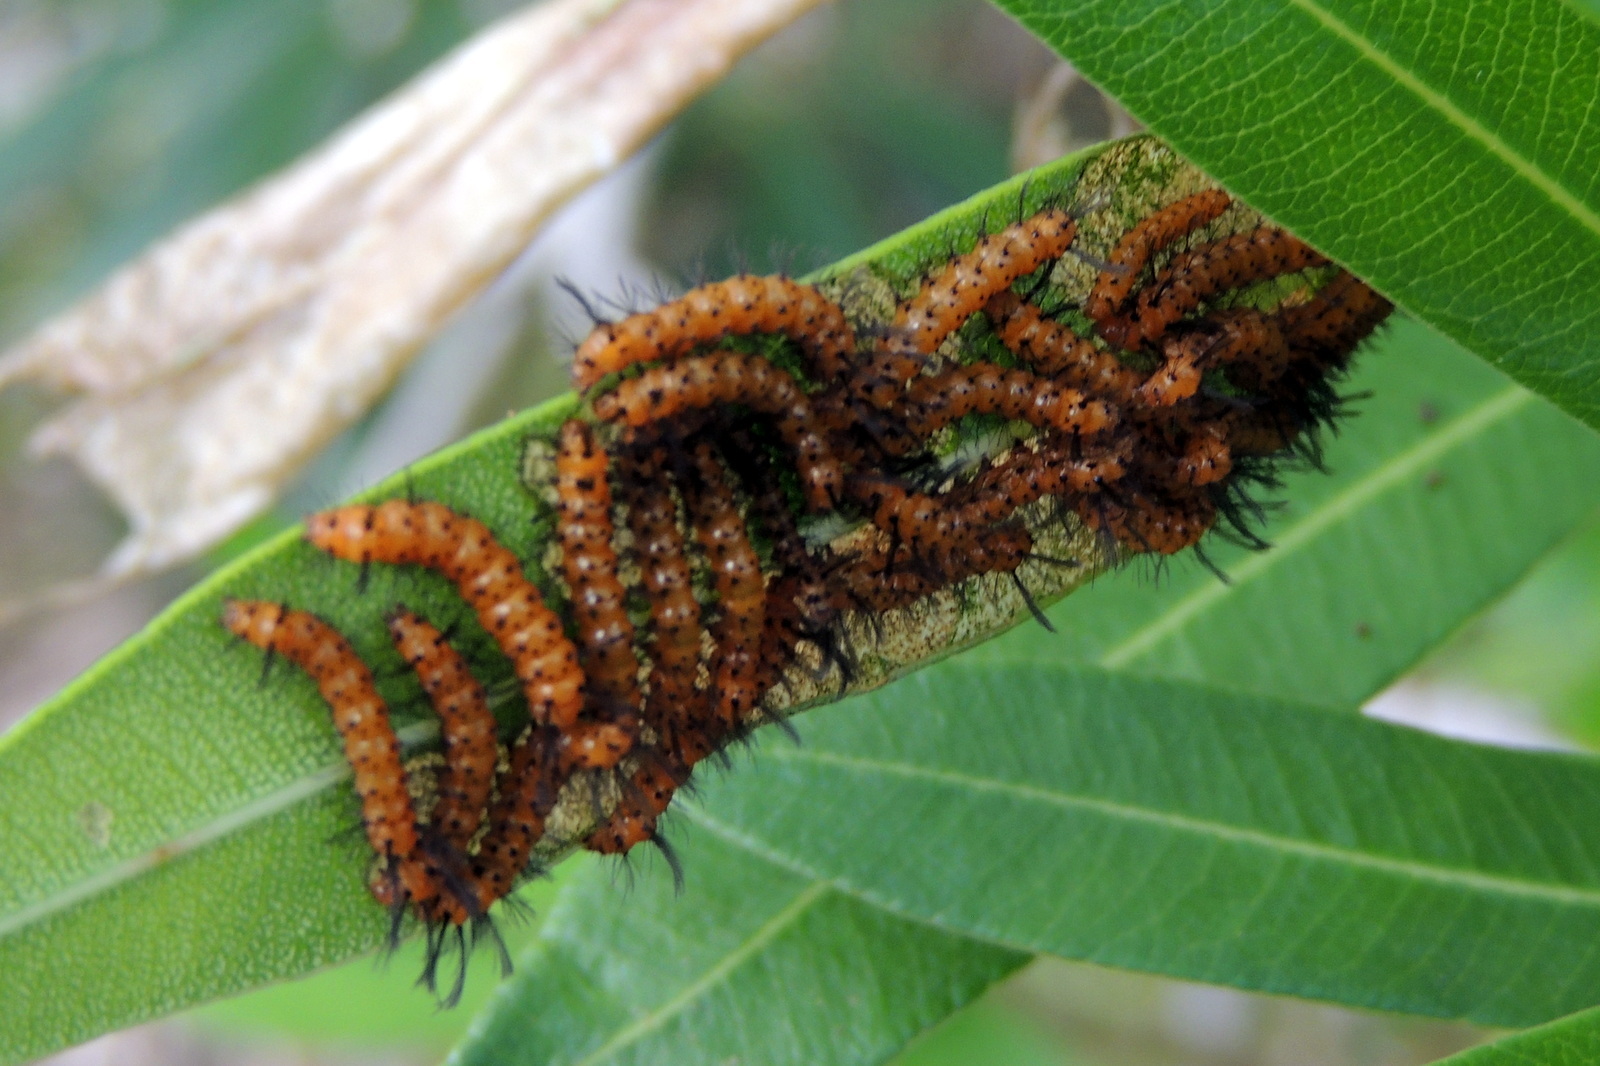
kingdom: Animalia
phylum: Arthropoda
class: Insecta
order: Lepidoptera
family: Erebidae
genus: Syntomeida
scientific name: Syntomeida epilais
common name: Polka-dot wasp moth
